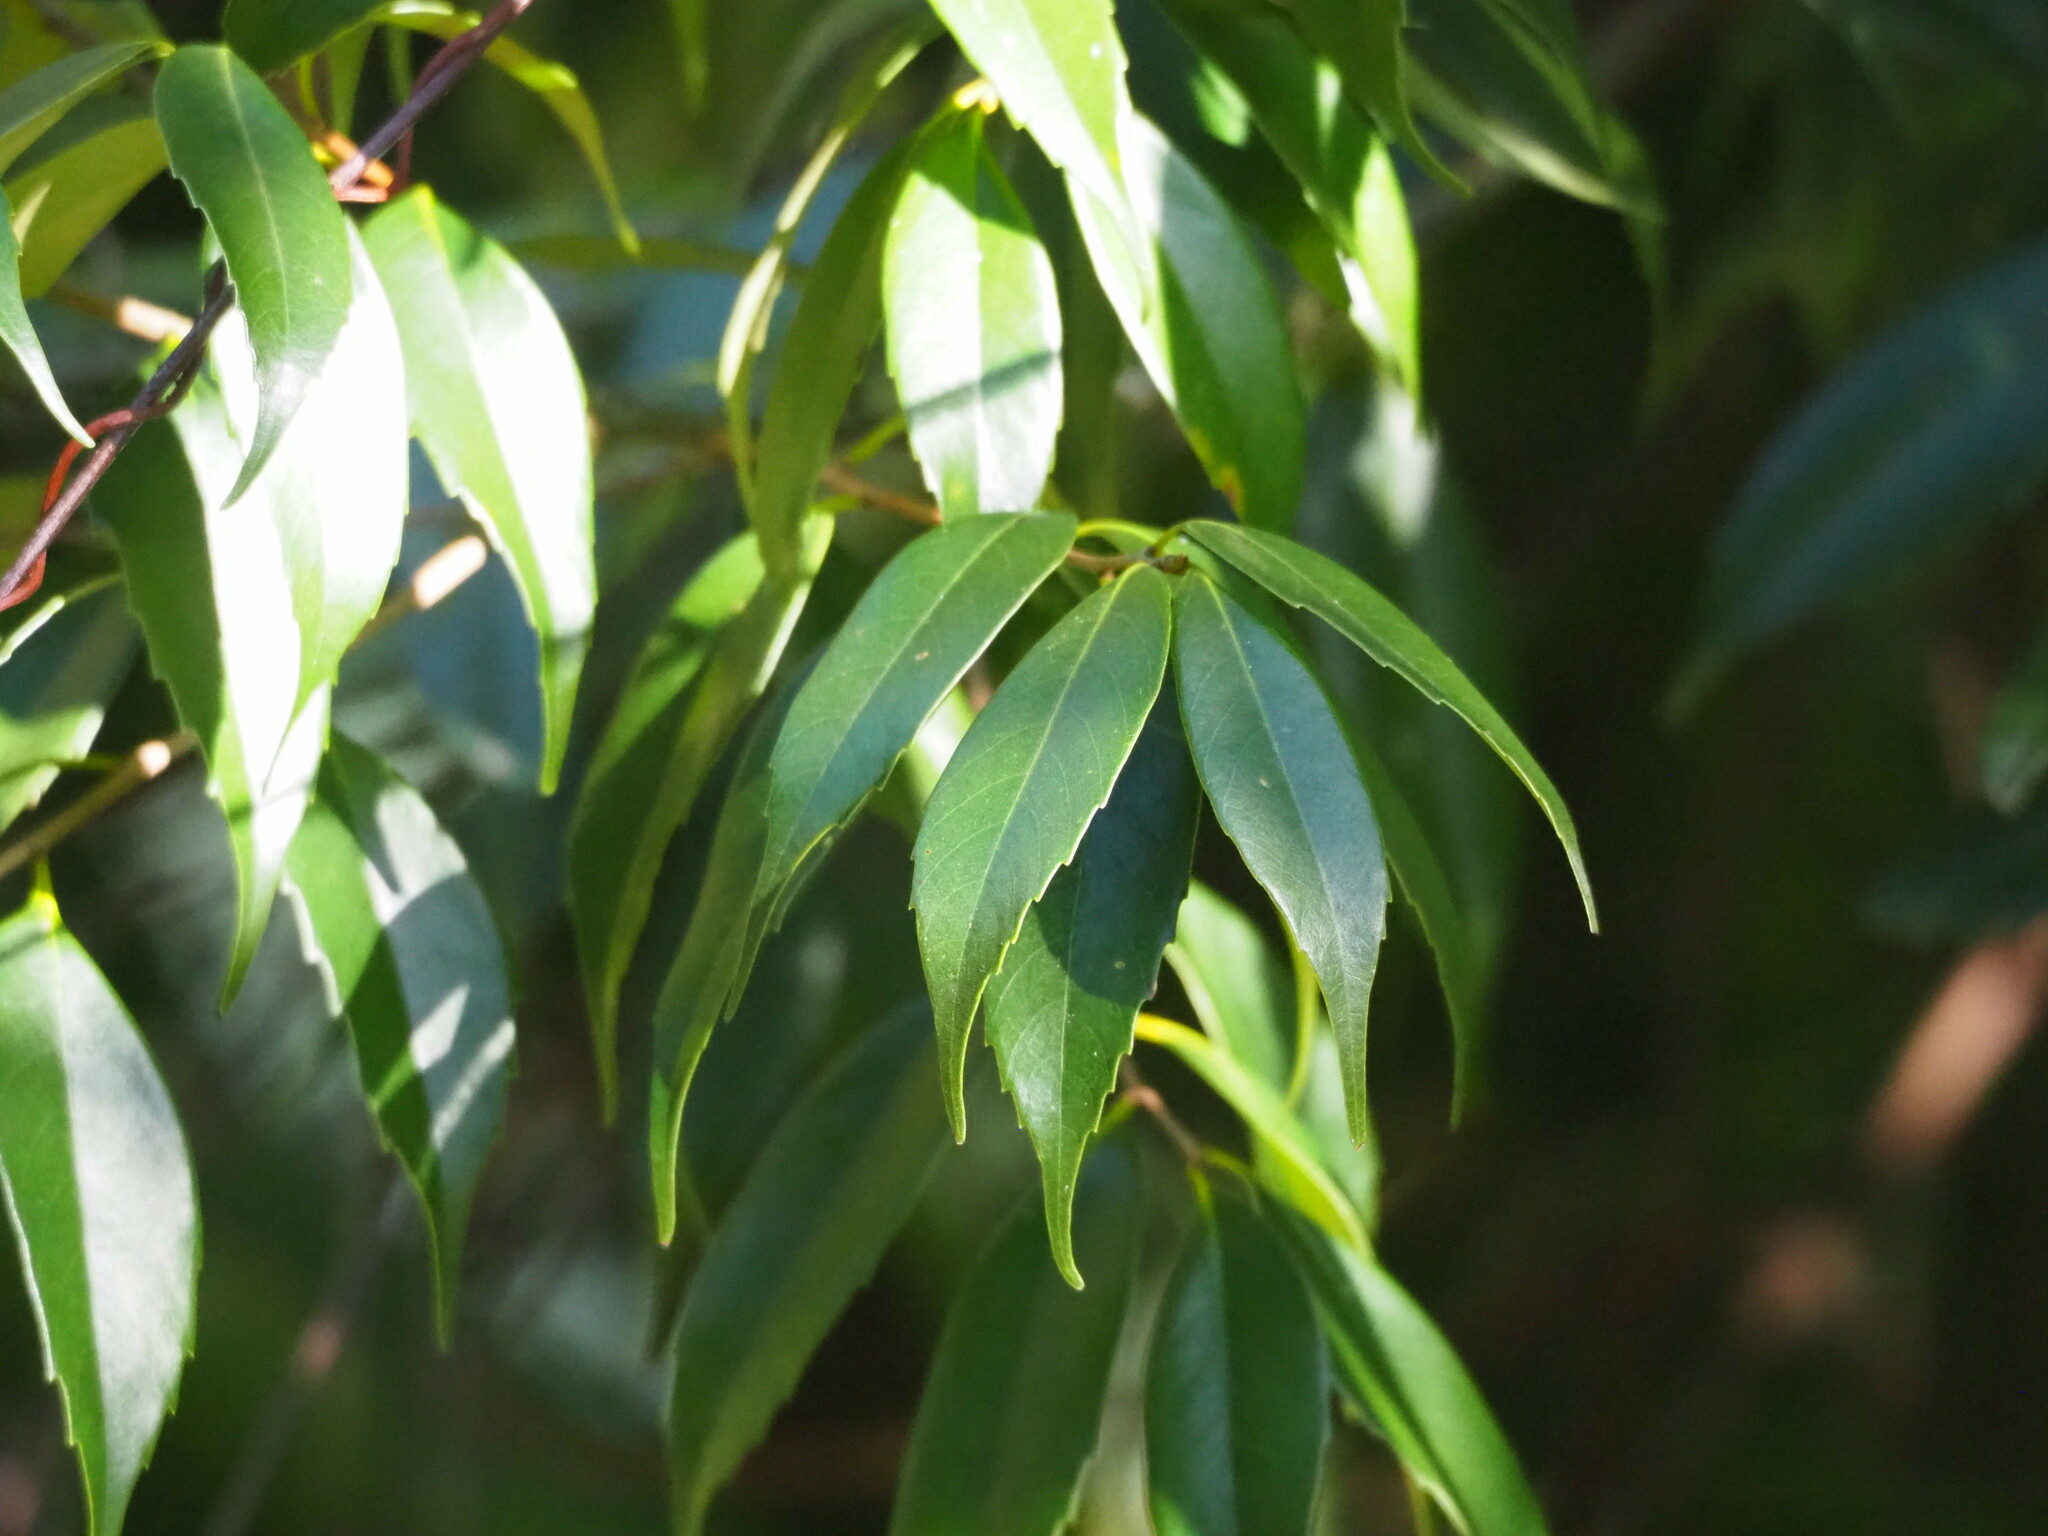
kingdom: Plantae
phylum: Tracheophyta
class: Magnoliopsida
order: Fagales
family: Fagaceae
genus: Lithocarpus
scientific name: Lithocarpus uraianus
